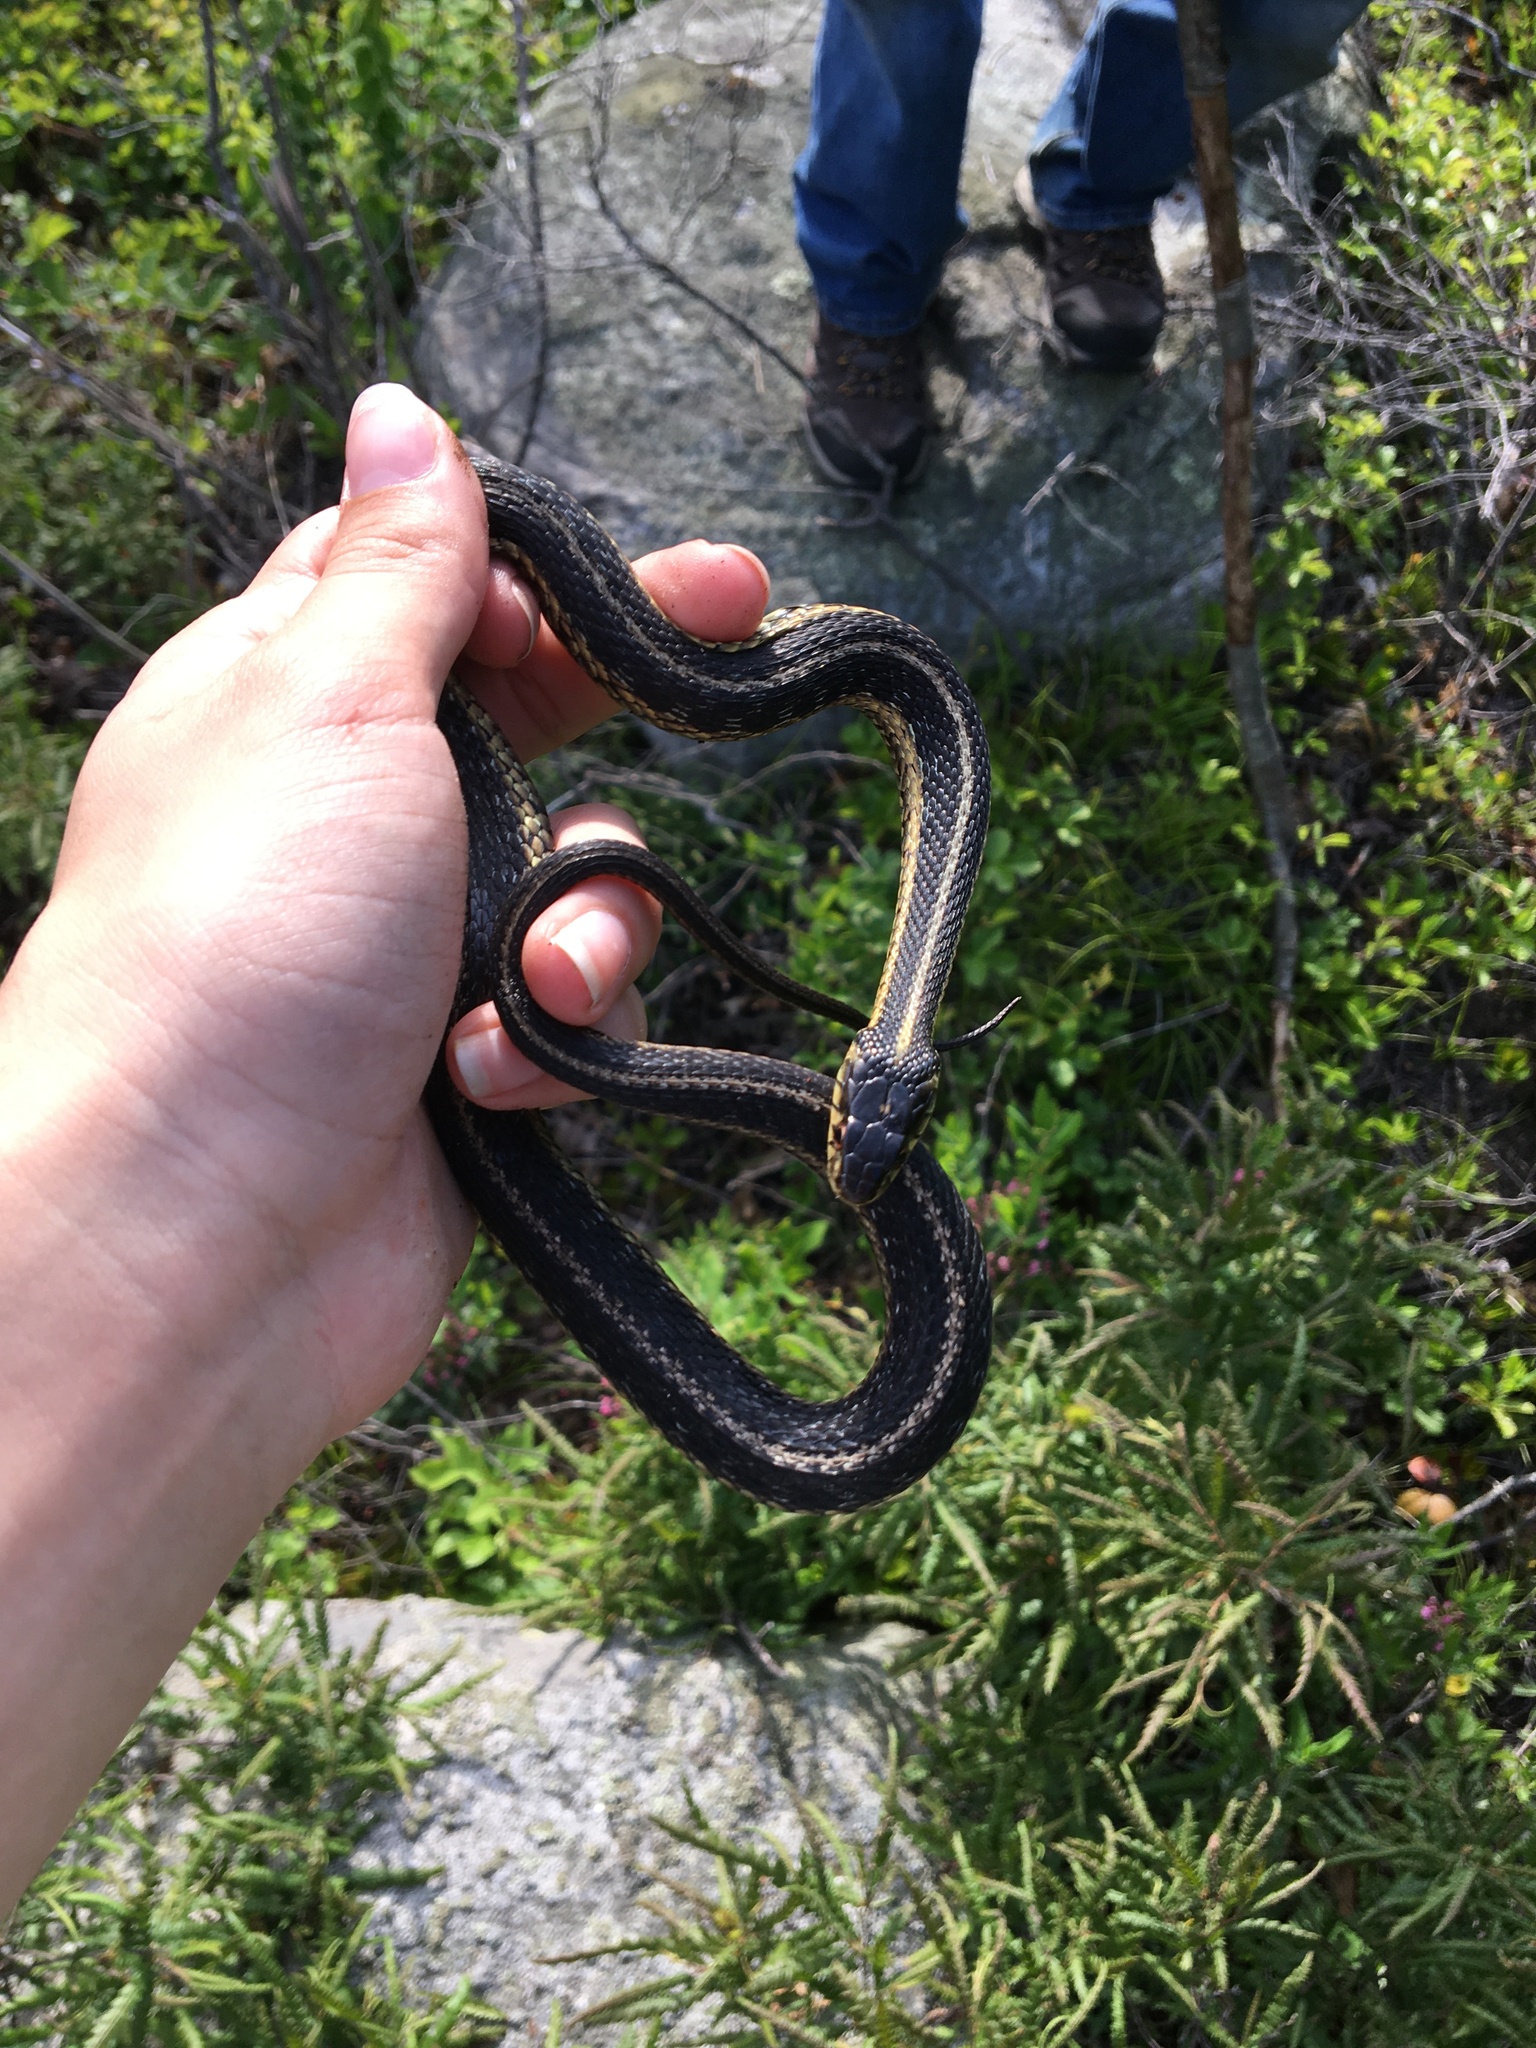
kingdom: Animalia
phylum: Chordata
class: Squamata
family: Colubridae
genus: Thamnophis
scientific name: Thamnophis sirtalis
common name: Common garter snake
